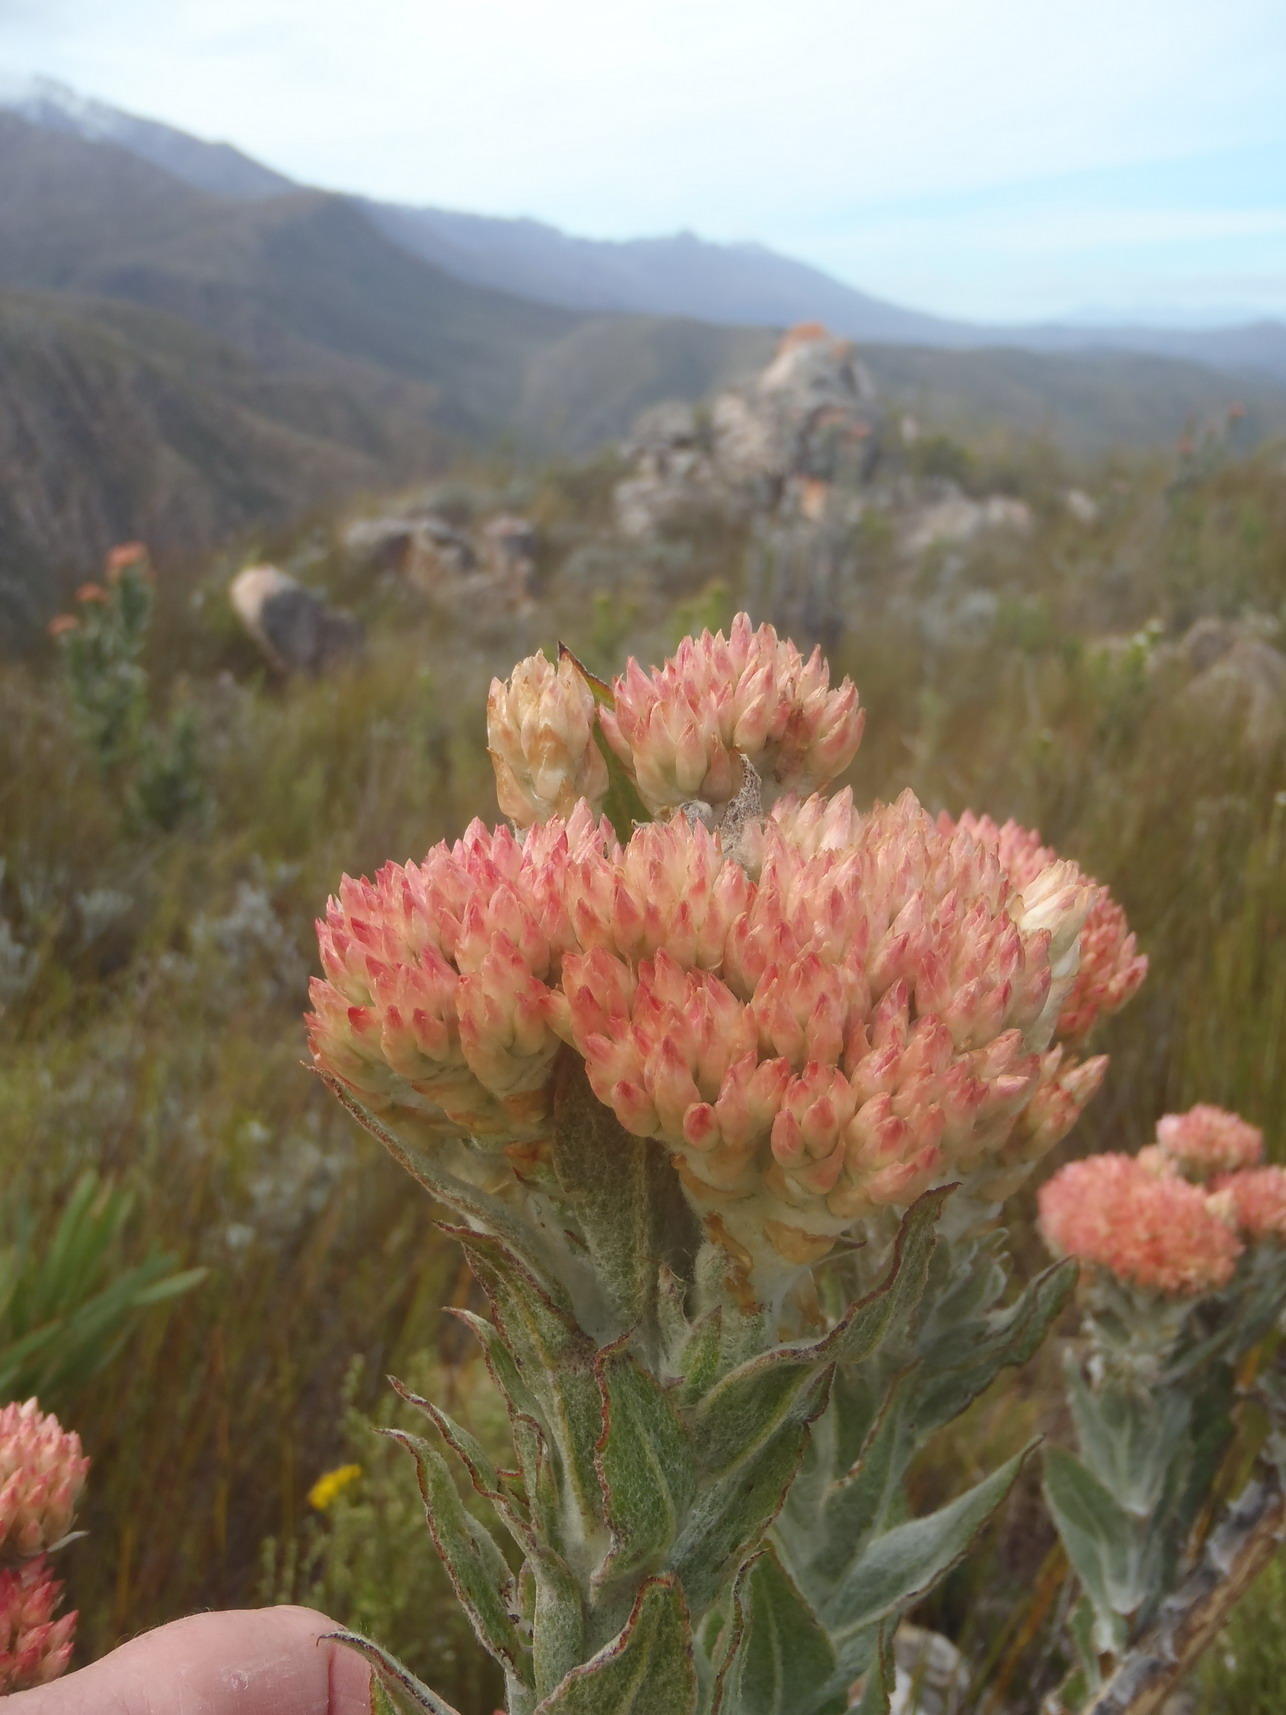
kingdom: Plantae
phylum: Tracheophyta
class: Magnoliopsida
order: Asterales
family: Asteraceae
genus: Syncarpha
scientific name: Syncarpha milleflora
